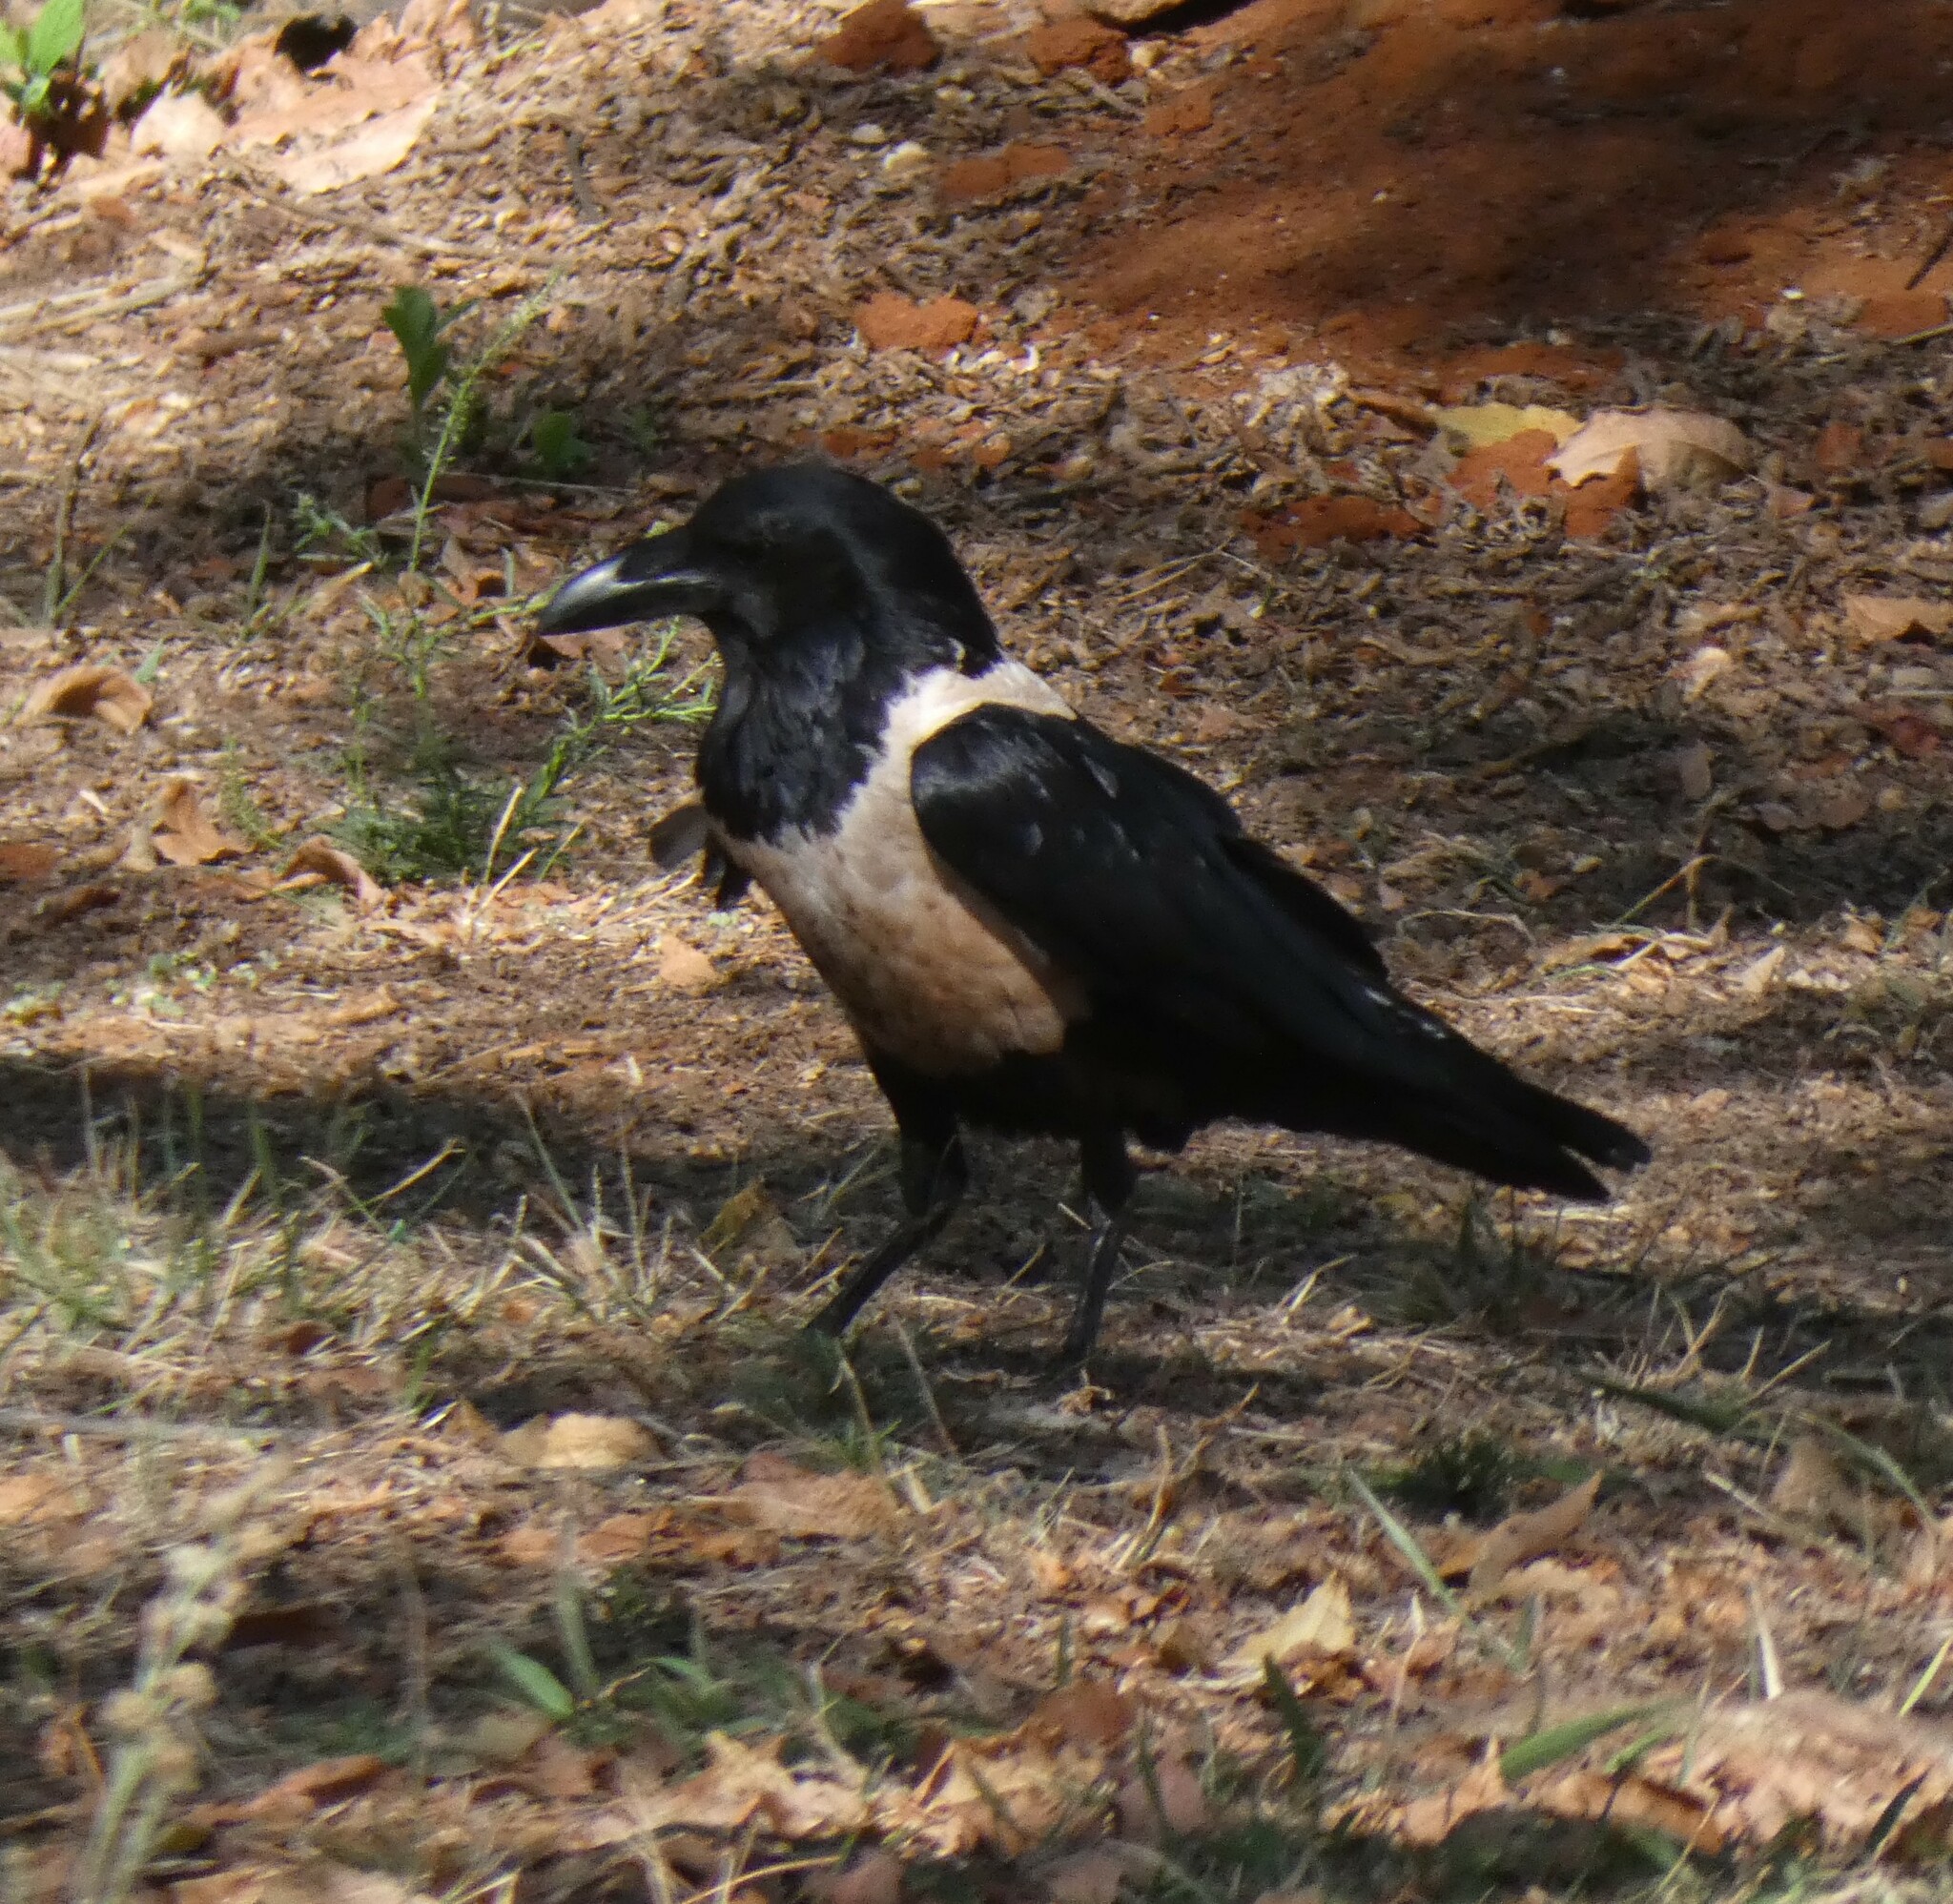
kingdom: Animalia
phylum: Chordata
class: Aves
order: Passeriformes
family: Corvidae
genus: Corvus
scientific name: Corvus albus
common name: Pied crow
